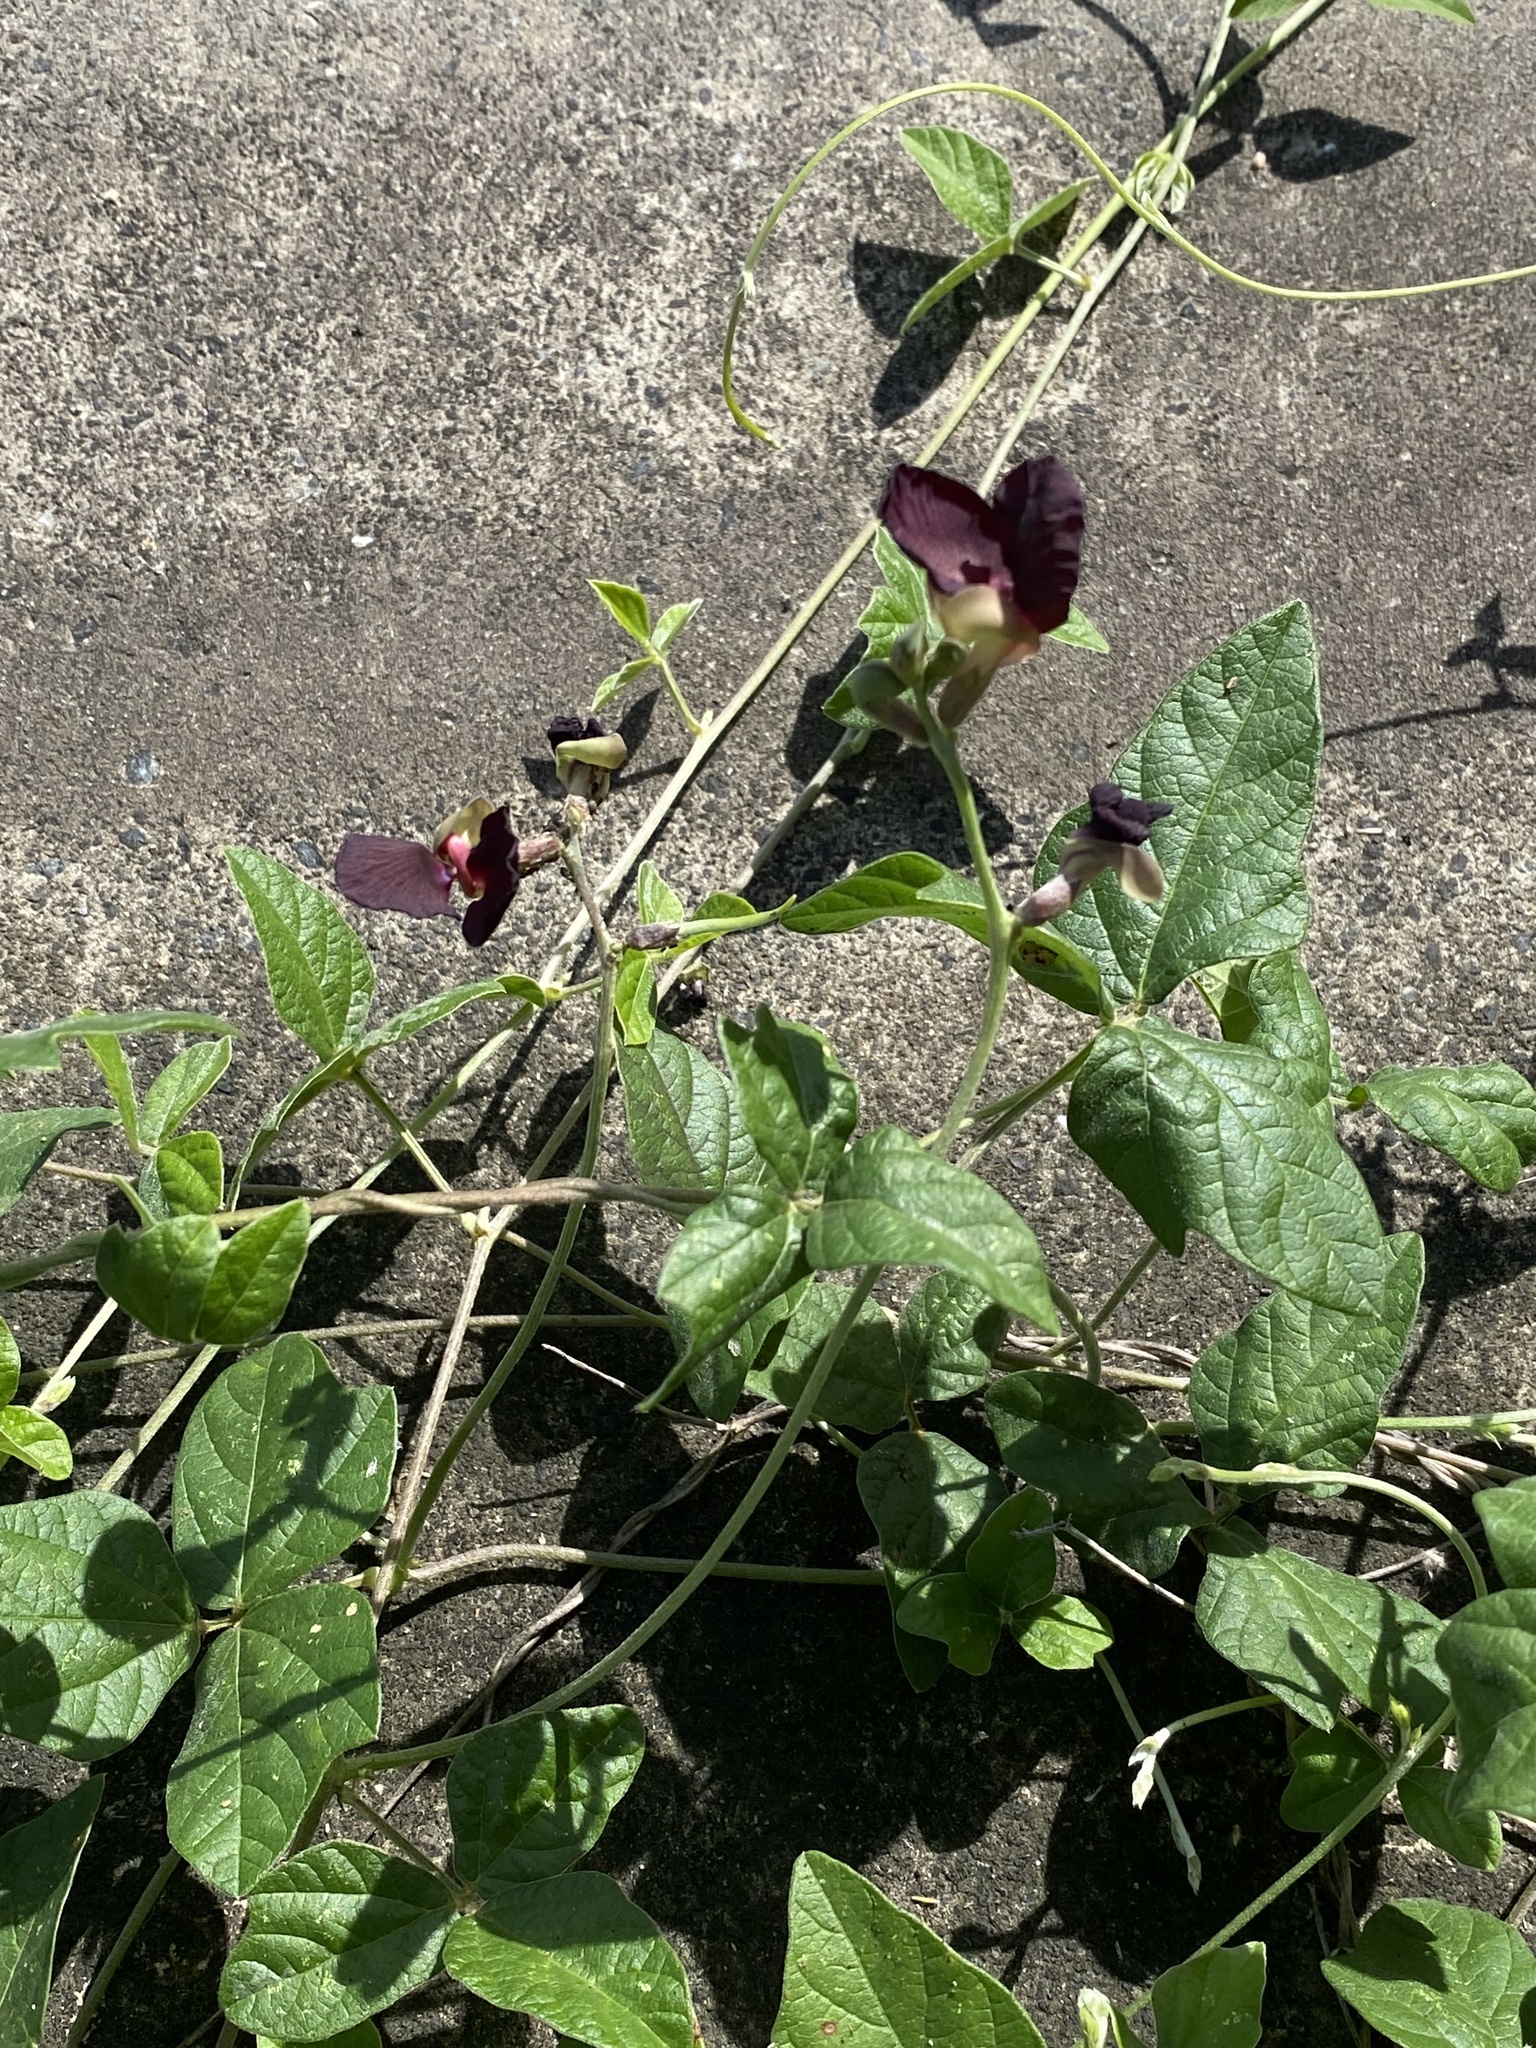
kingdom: Plantae
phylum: Tracheophyta
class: Magnoliopsida
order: Fabales
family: Fabaceae
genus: Macroptilium
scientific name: Macroptilium atropurpureum
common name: Purple bushbean
